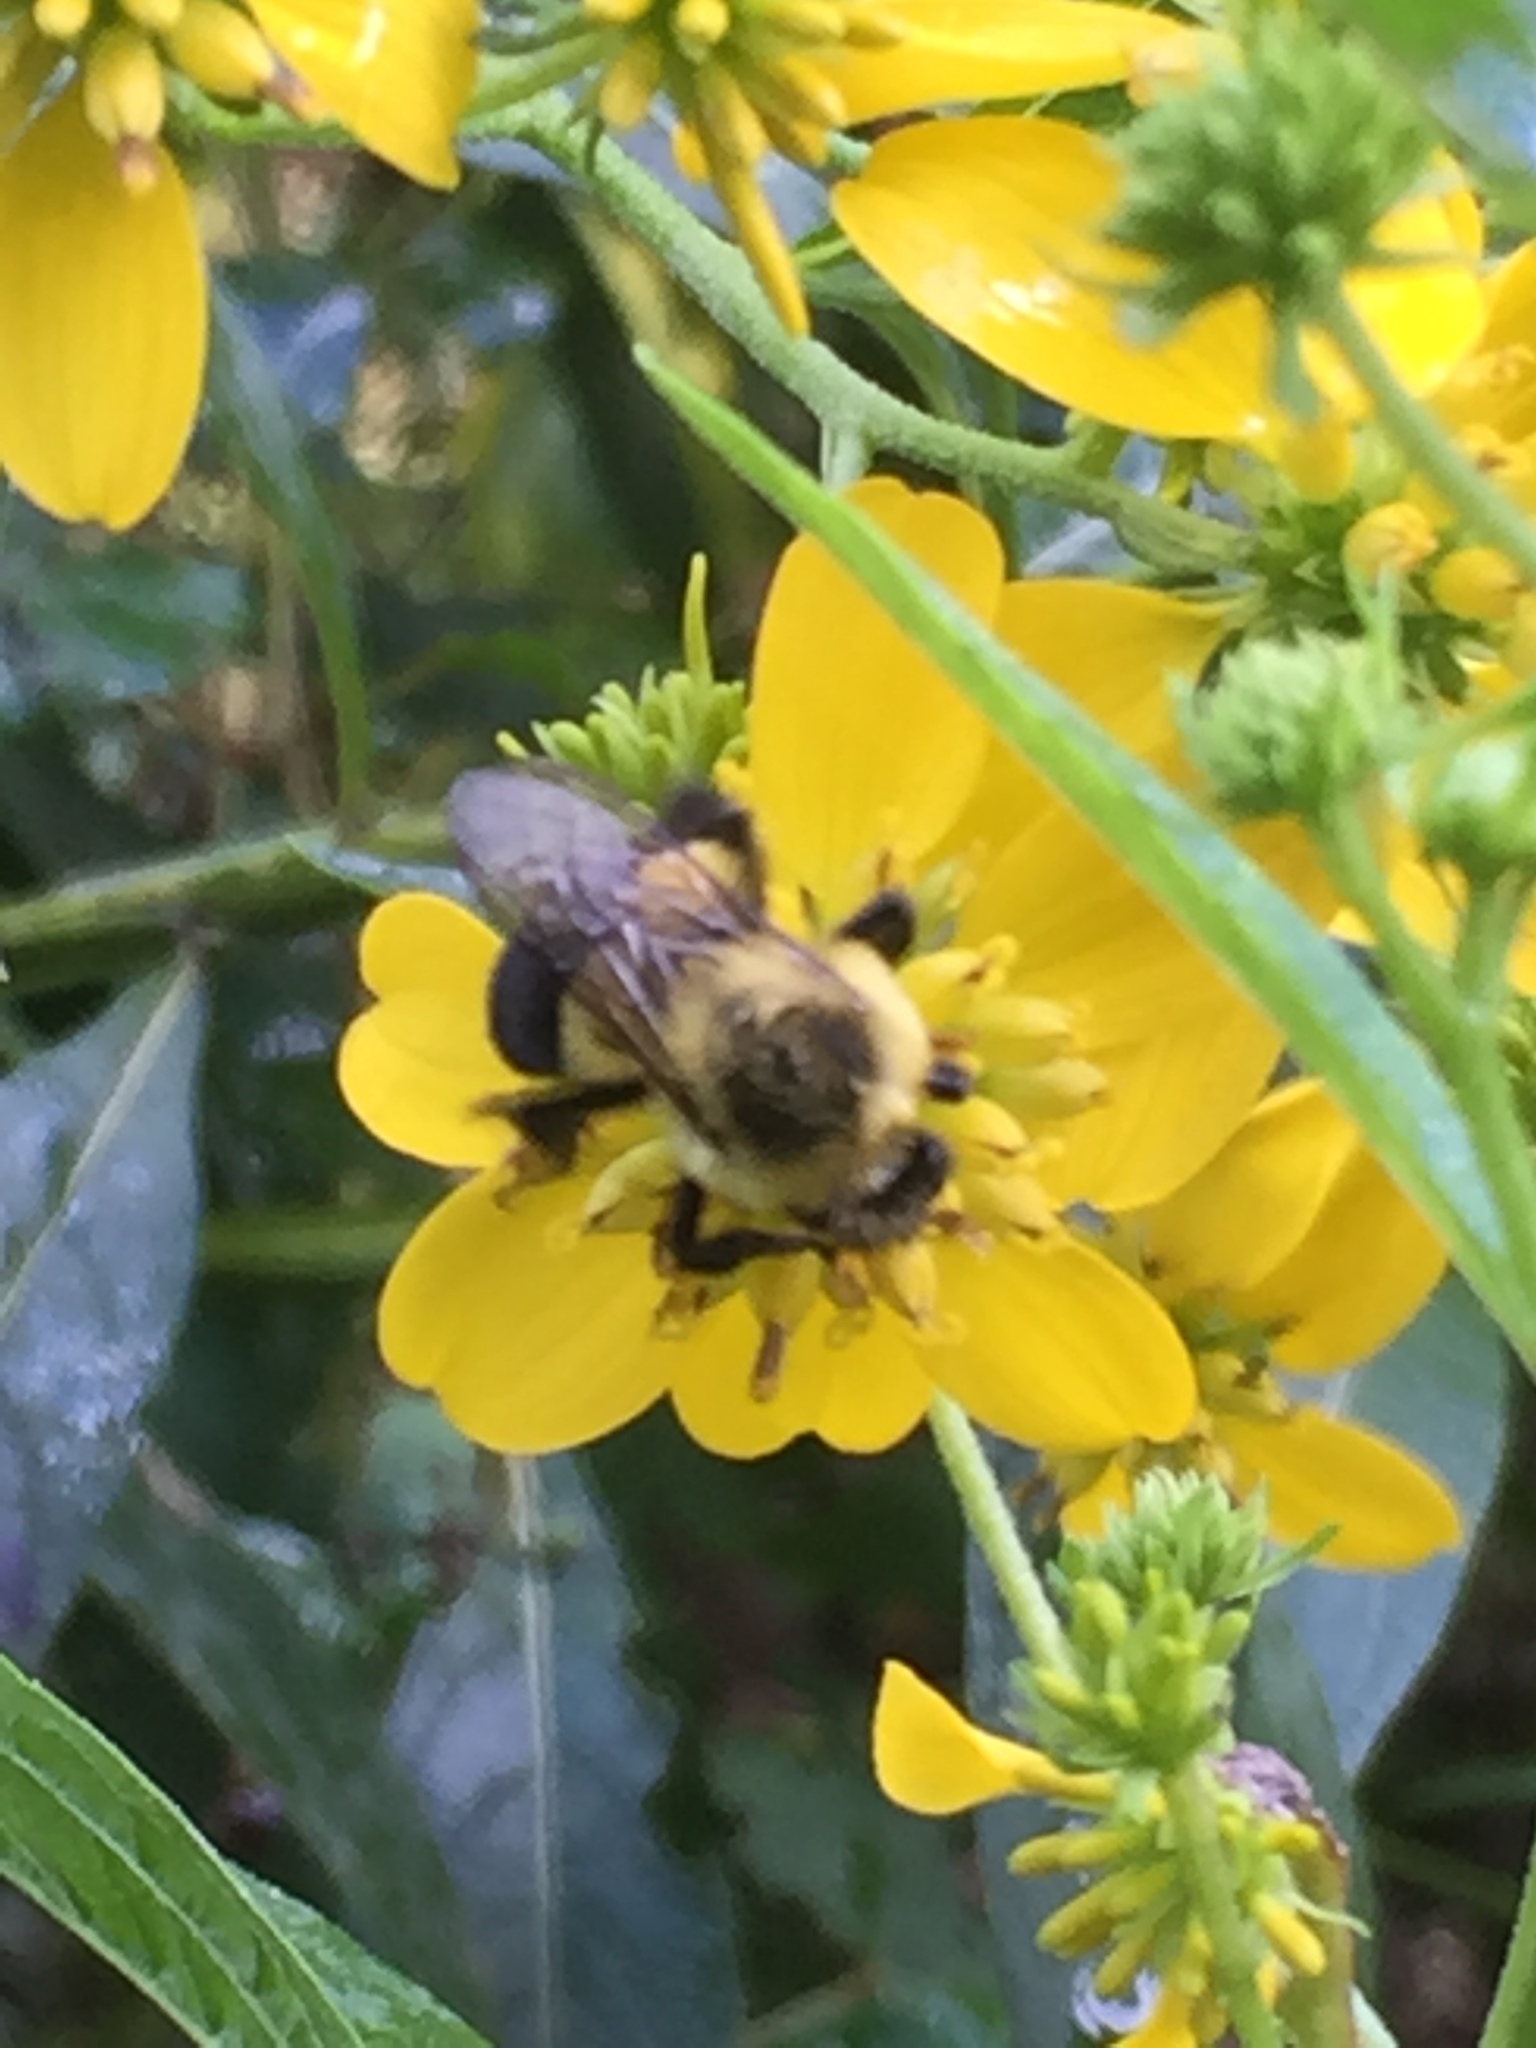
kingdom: Animalia
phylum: Arthropoda
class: Insecta
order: Hymenoptera
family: Apidae
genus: Bombus
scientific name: Bombus impatiens
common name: Common eastern bumble bee
